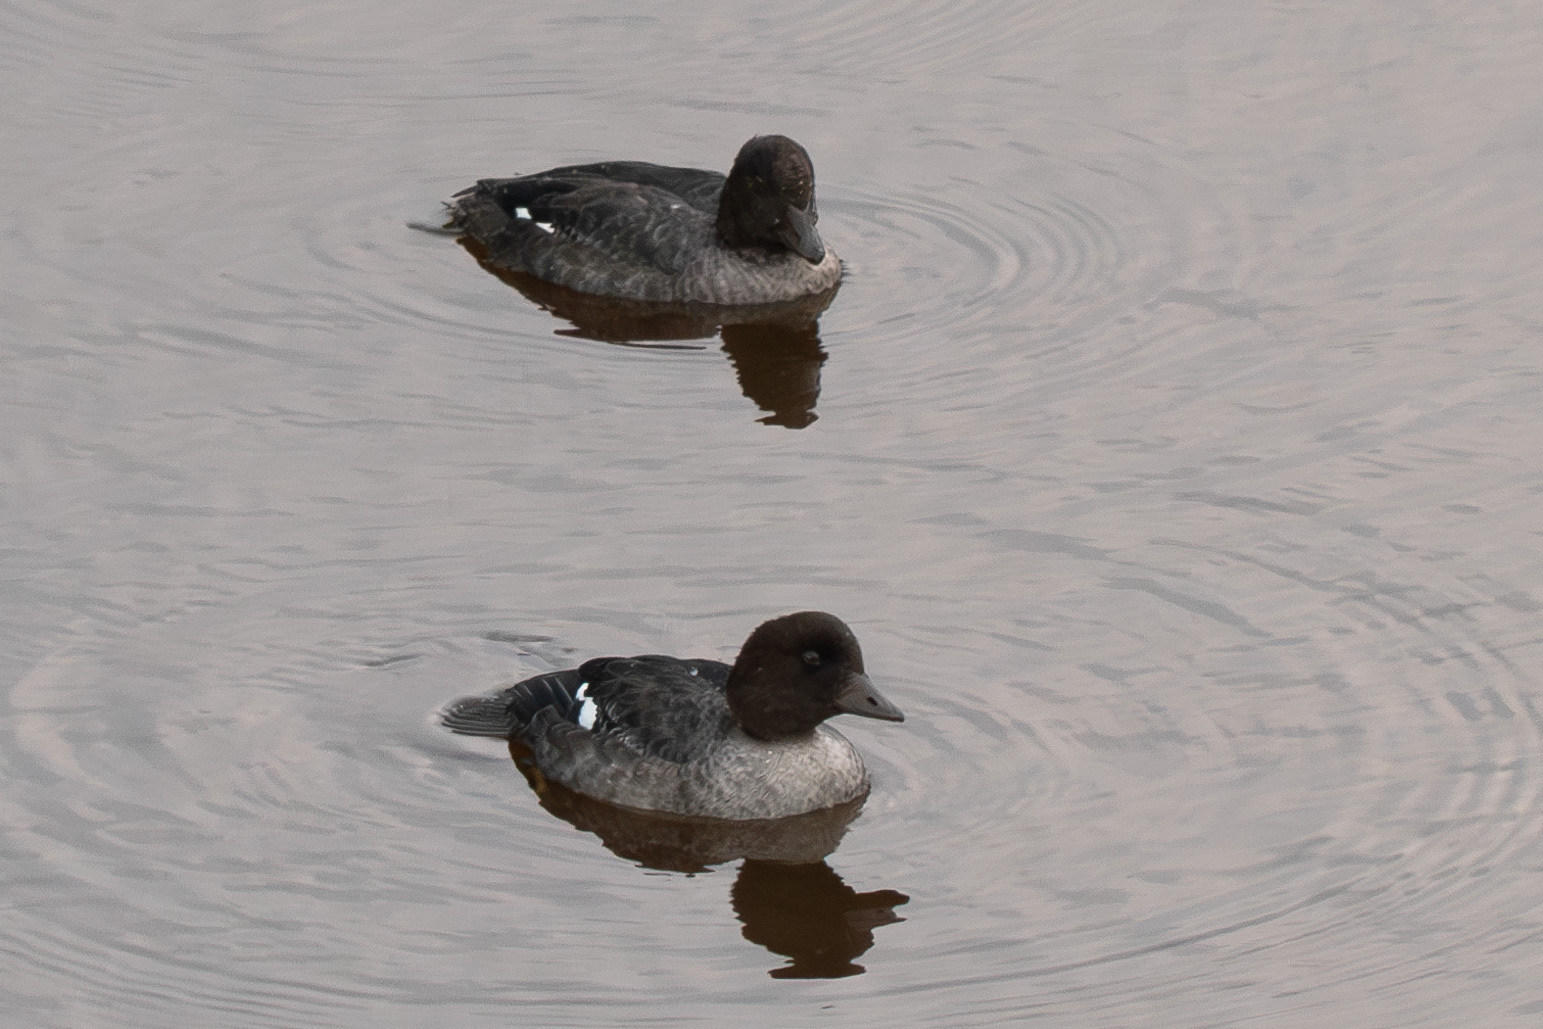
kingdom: Animalia
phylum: Chordata
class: Aves
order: Anseriformes
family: Anatidae
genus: Bucephala
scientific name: Bucephala islandica
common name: Barrow's goldeneye
